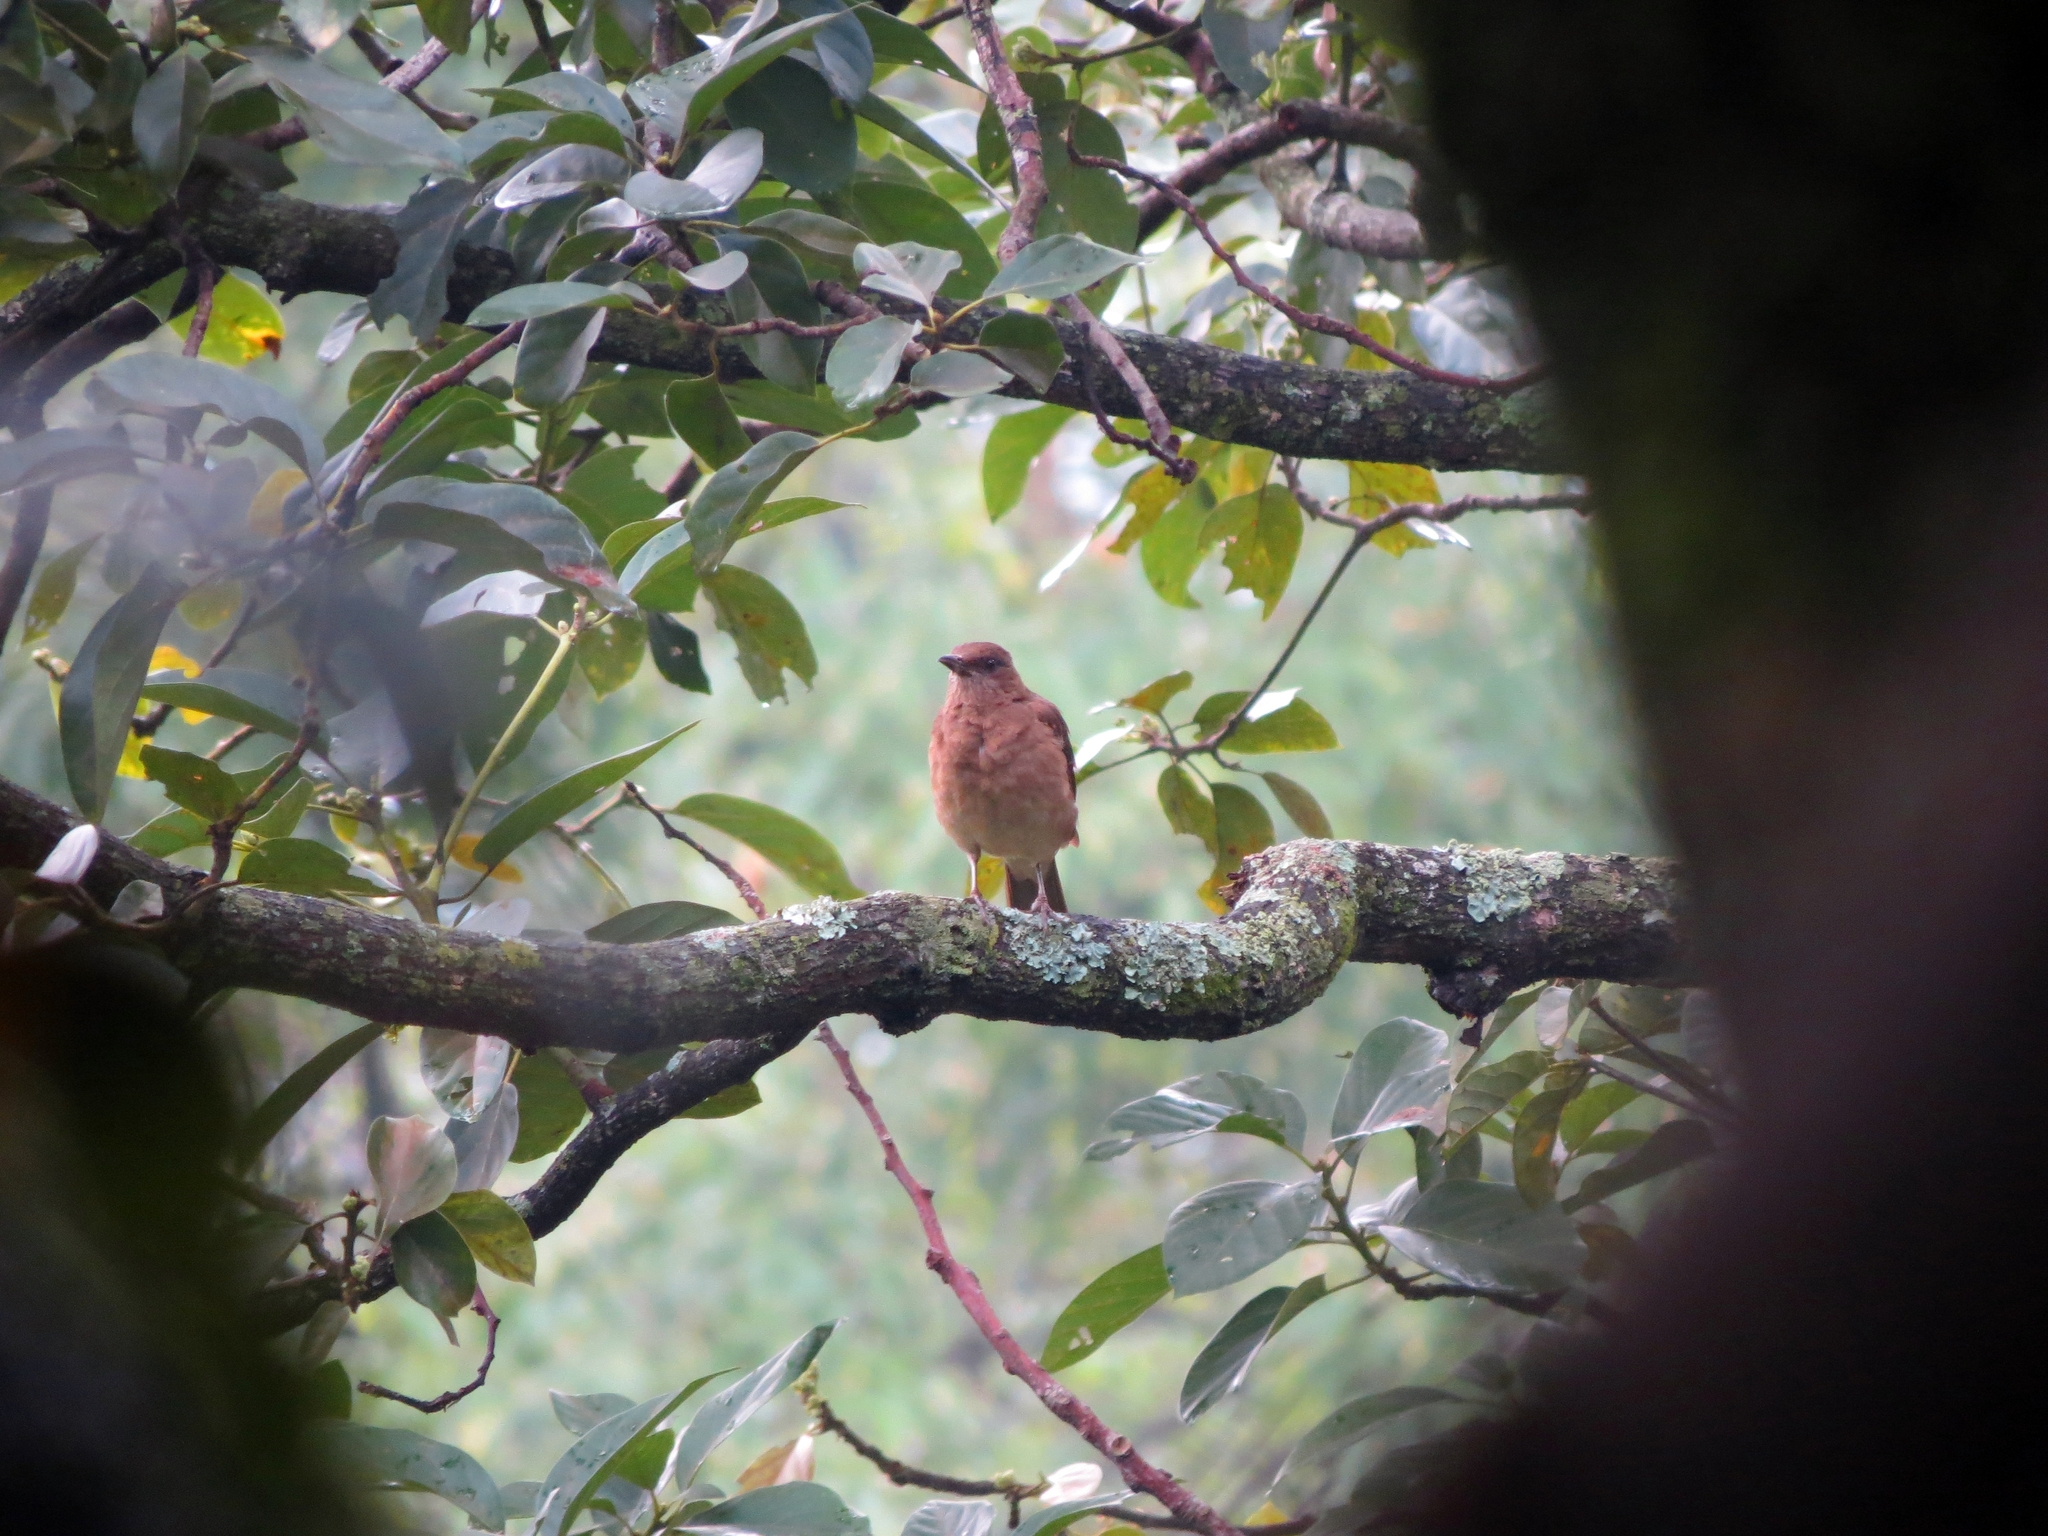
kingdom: Animalia
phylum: Chordata
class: Aves
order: Passeriformes
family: Turdidae
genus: Turdus
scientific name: Turdus ignobilis
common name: Black-billed thrush
